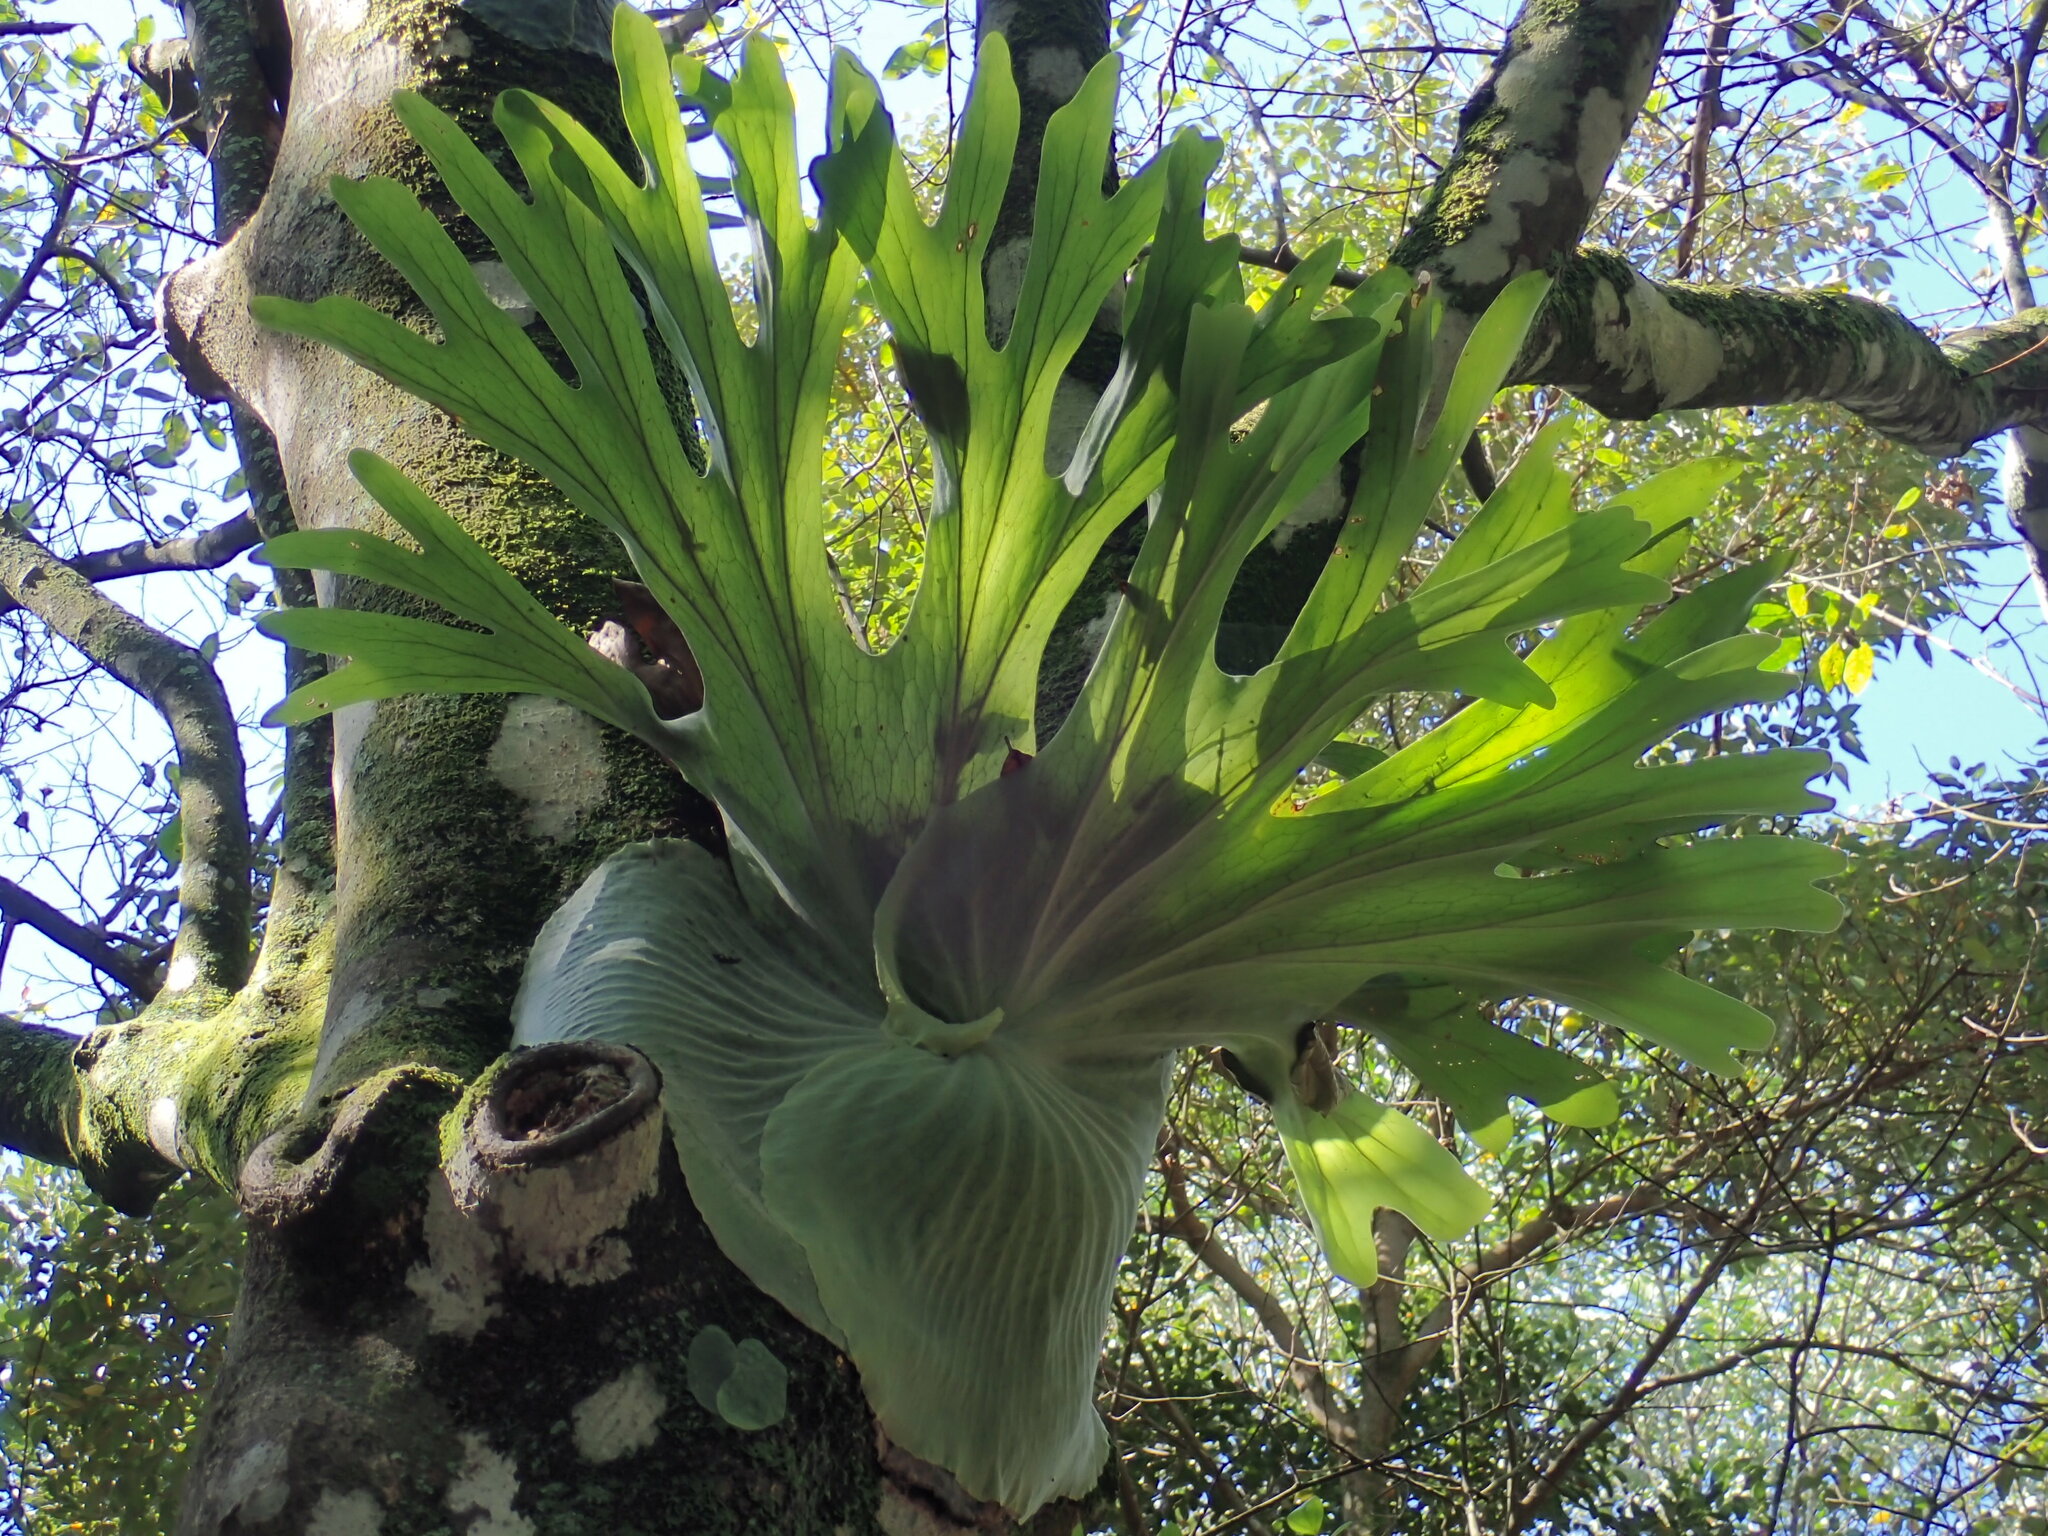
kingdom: Plantae
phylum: Tracheophyta
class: Polypodiopsida
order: Polypodiales
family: Polypodiaceae
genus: Platycerium
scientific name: Platycerium superbum
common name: Staghorn fern
